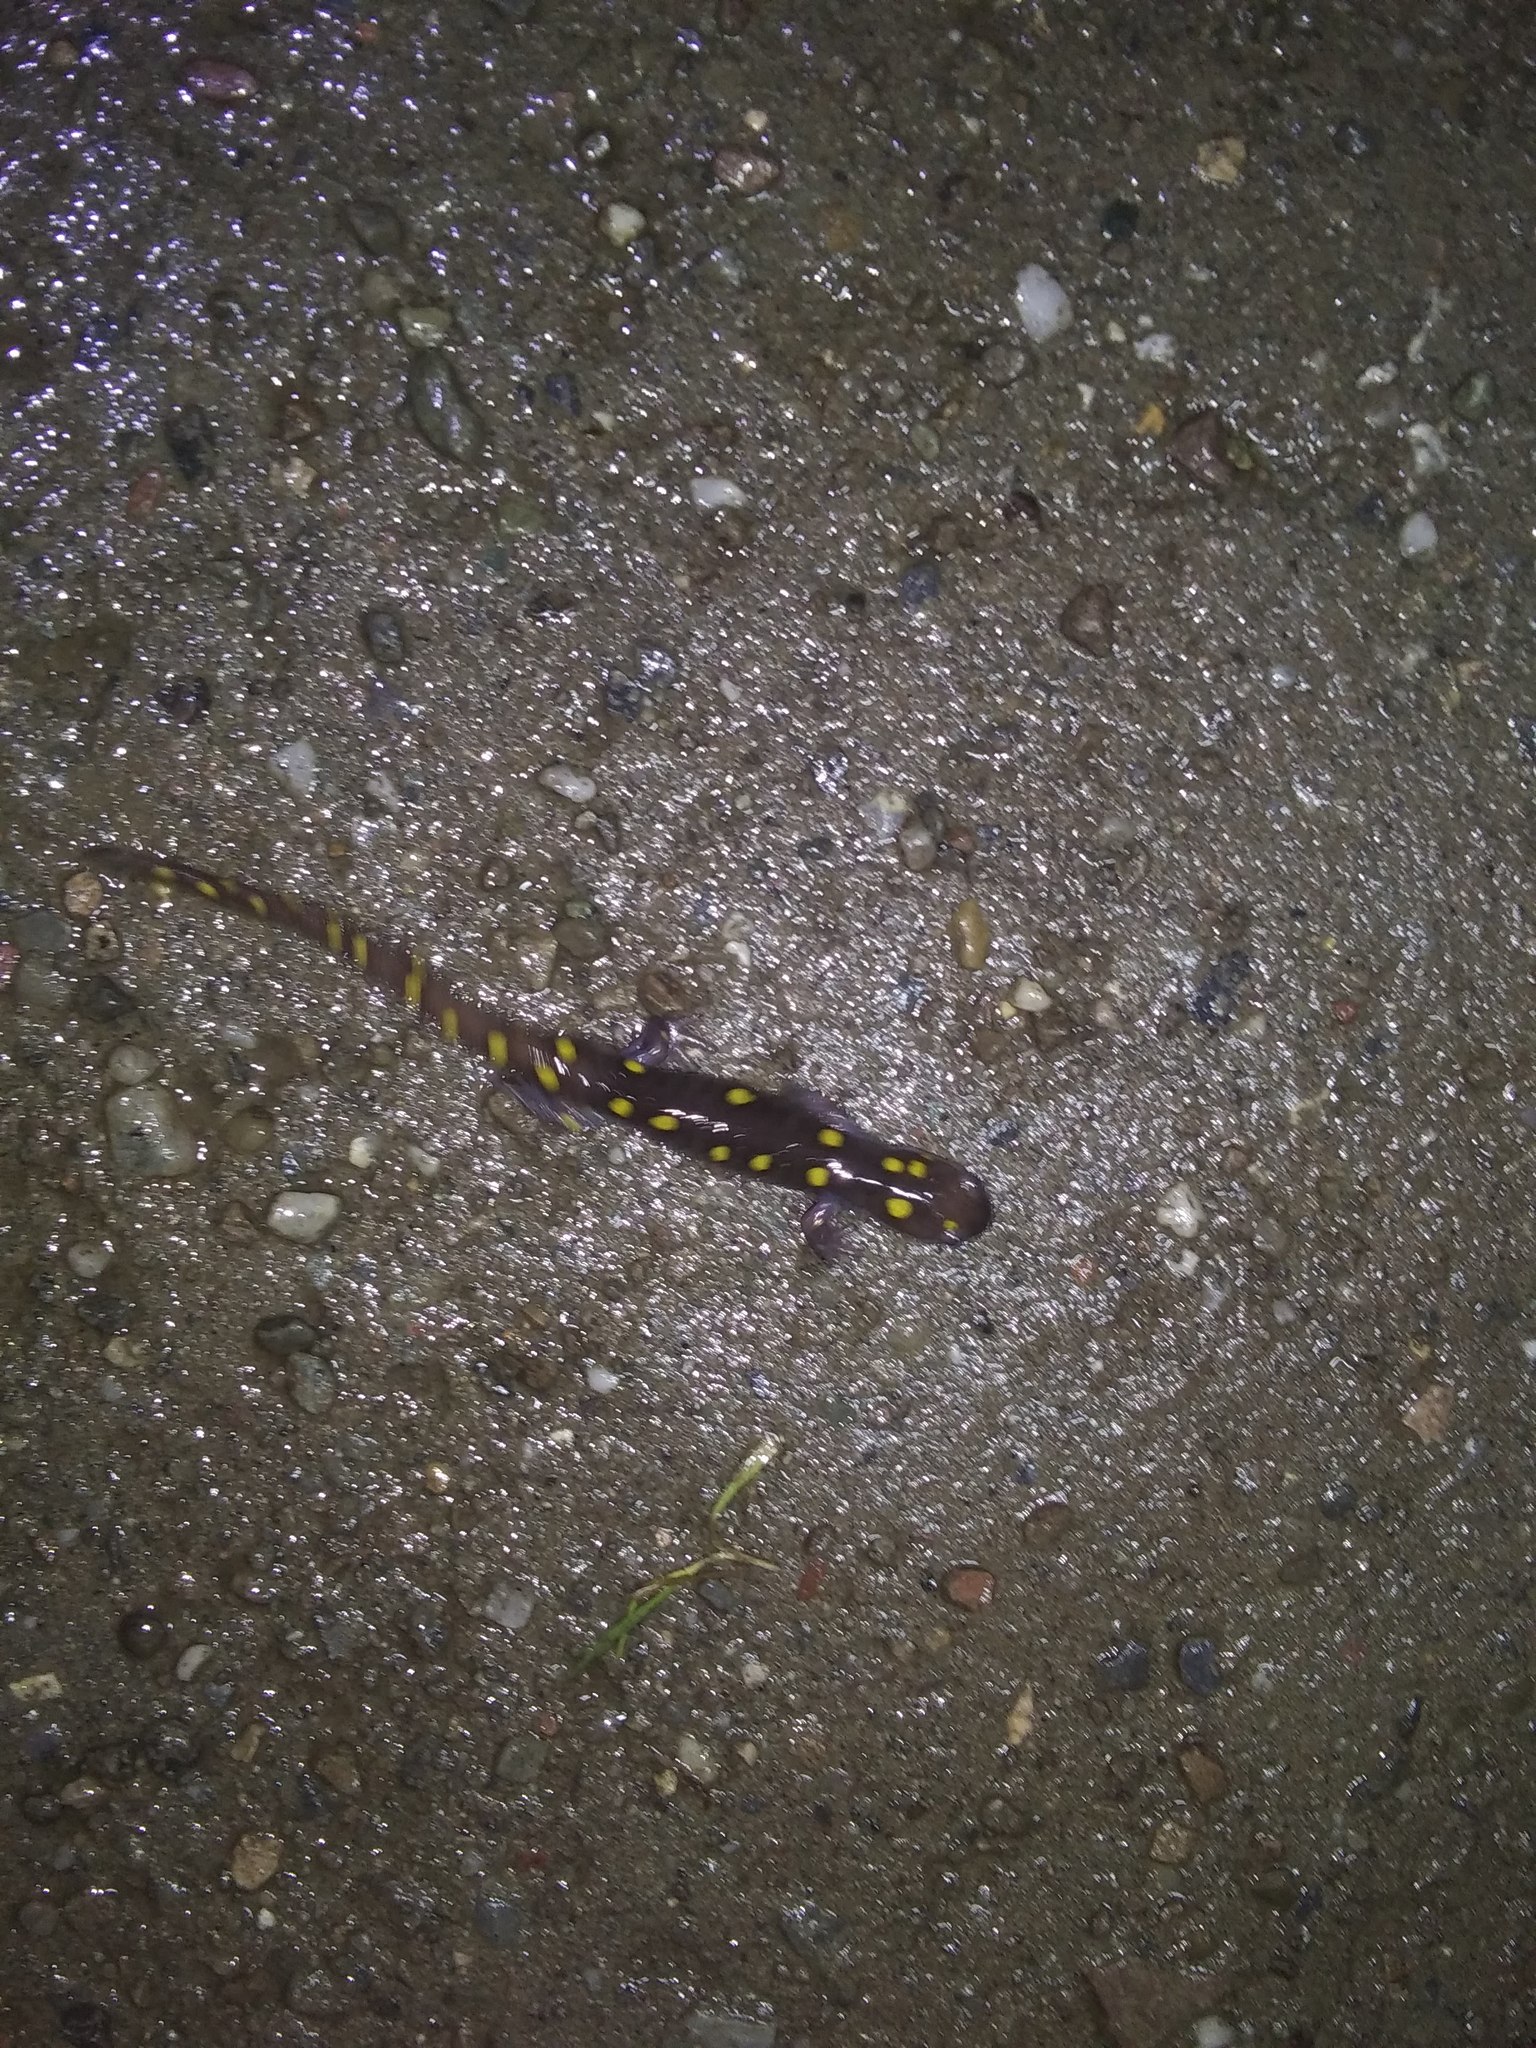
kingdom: Animalia
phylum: Chordata
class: Amphibia
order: Caudata
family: Ambystomatidae
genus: Ambystoma
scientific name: Ambystoma maculatum
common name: Spotted salamander
